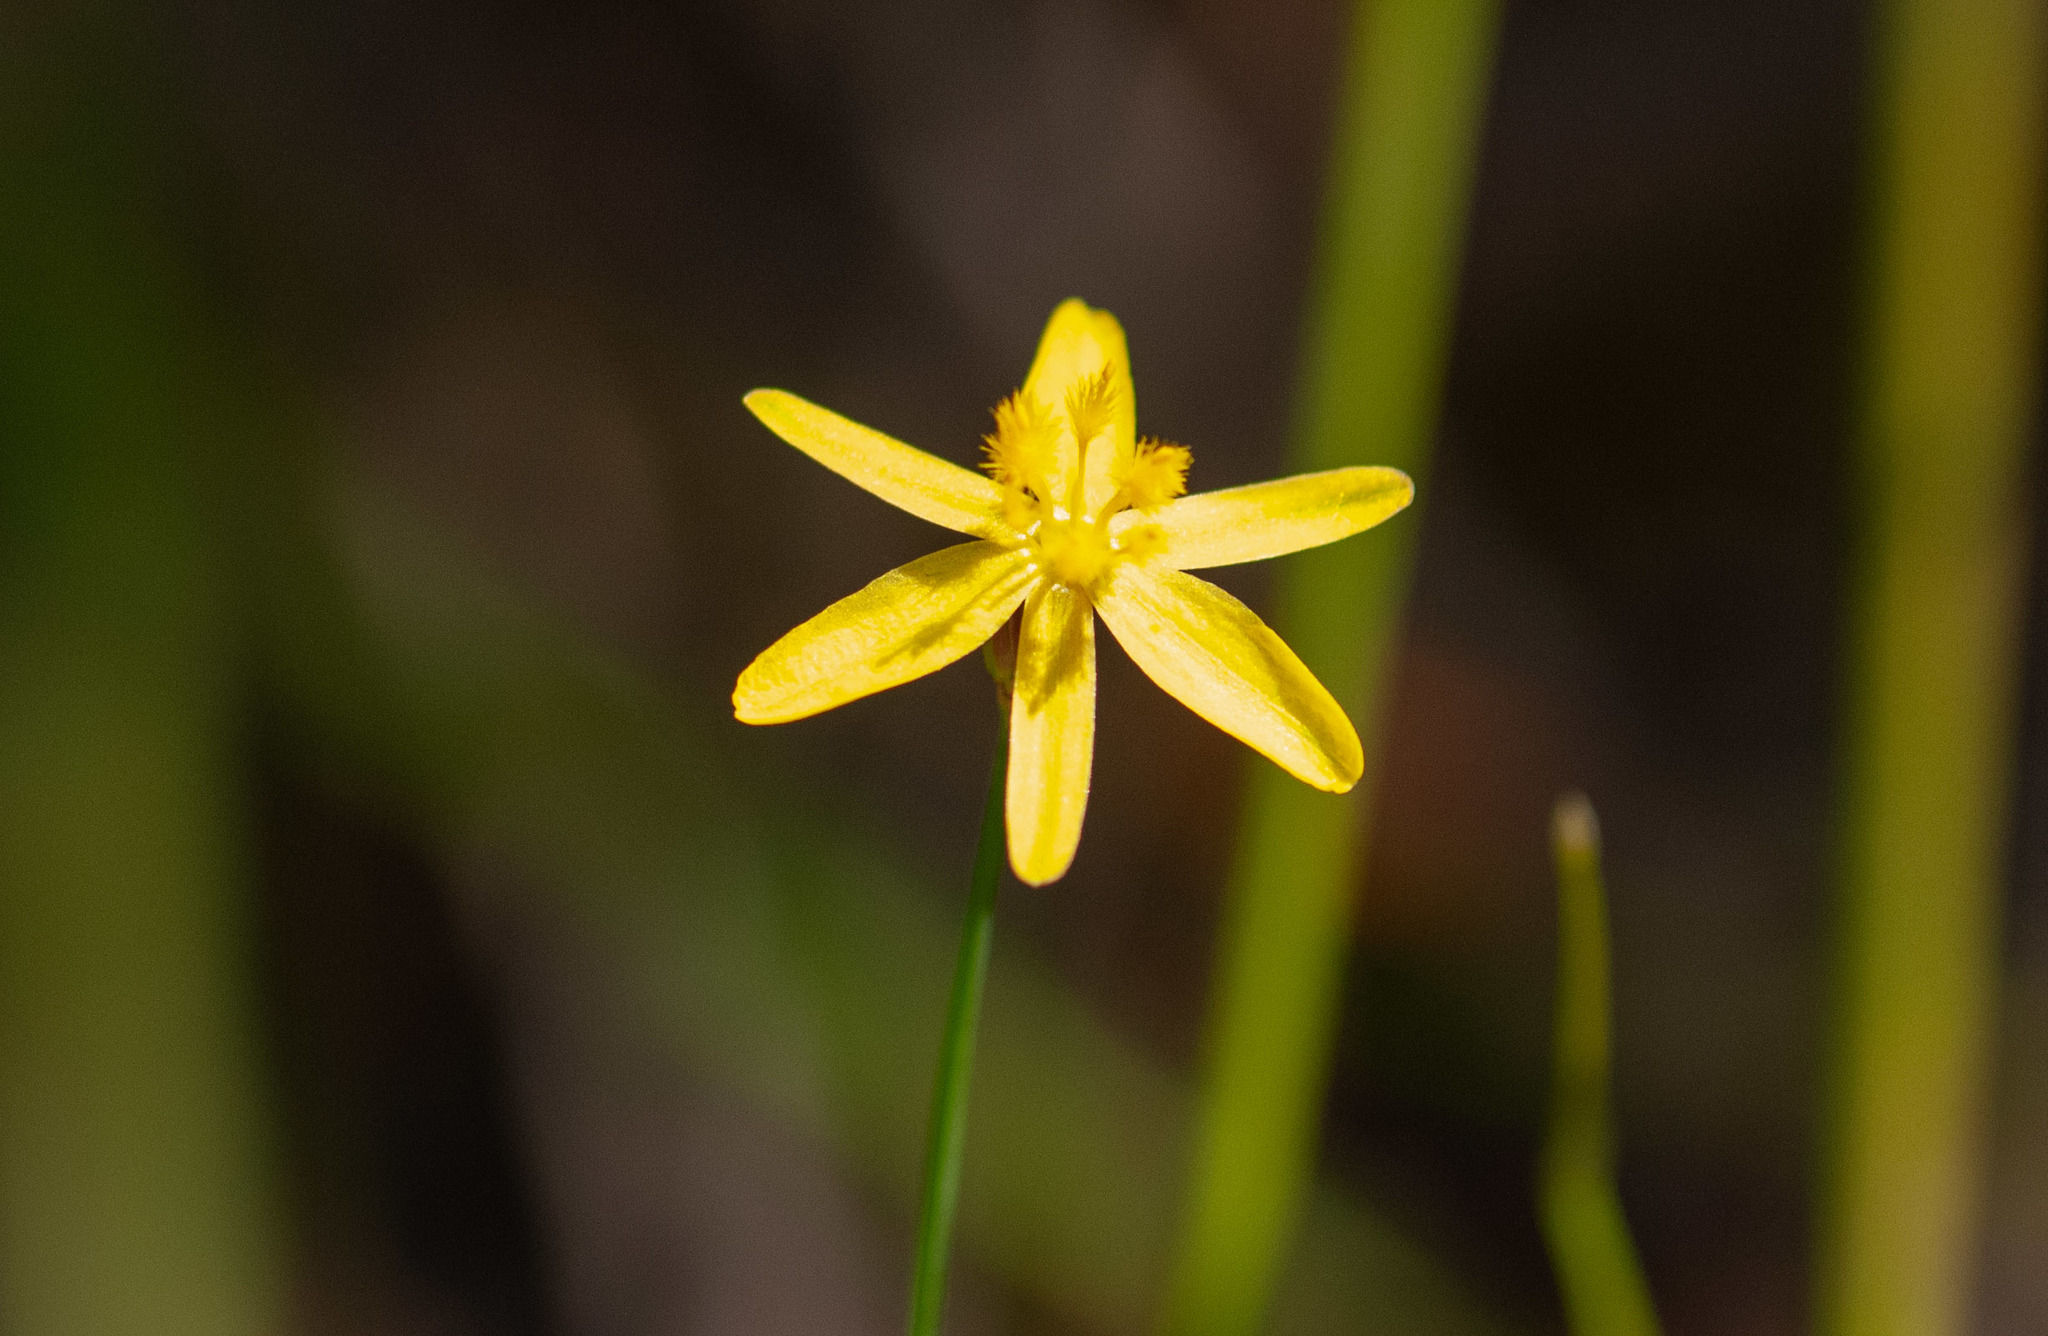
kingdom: Plantae
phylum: Tracheophyta
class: Liliopsida
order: Asparagales
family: Asphodelaceae
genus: Tricoryne
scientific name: Tricoryne elatior
